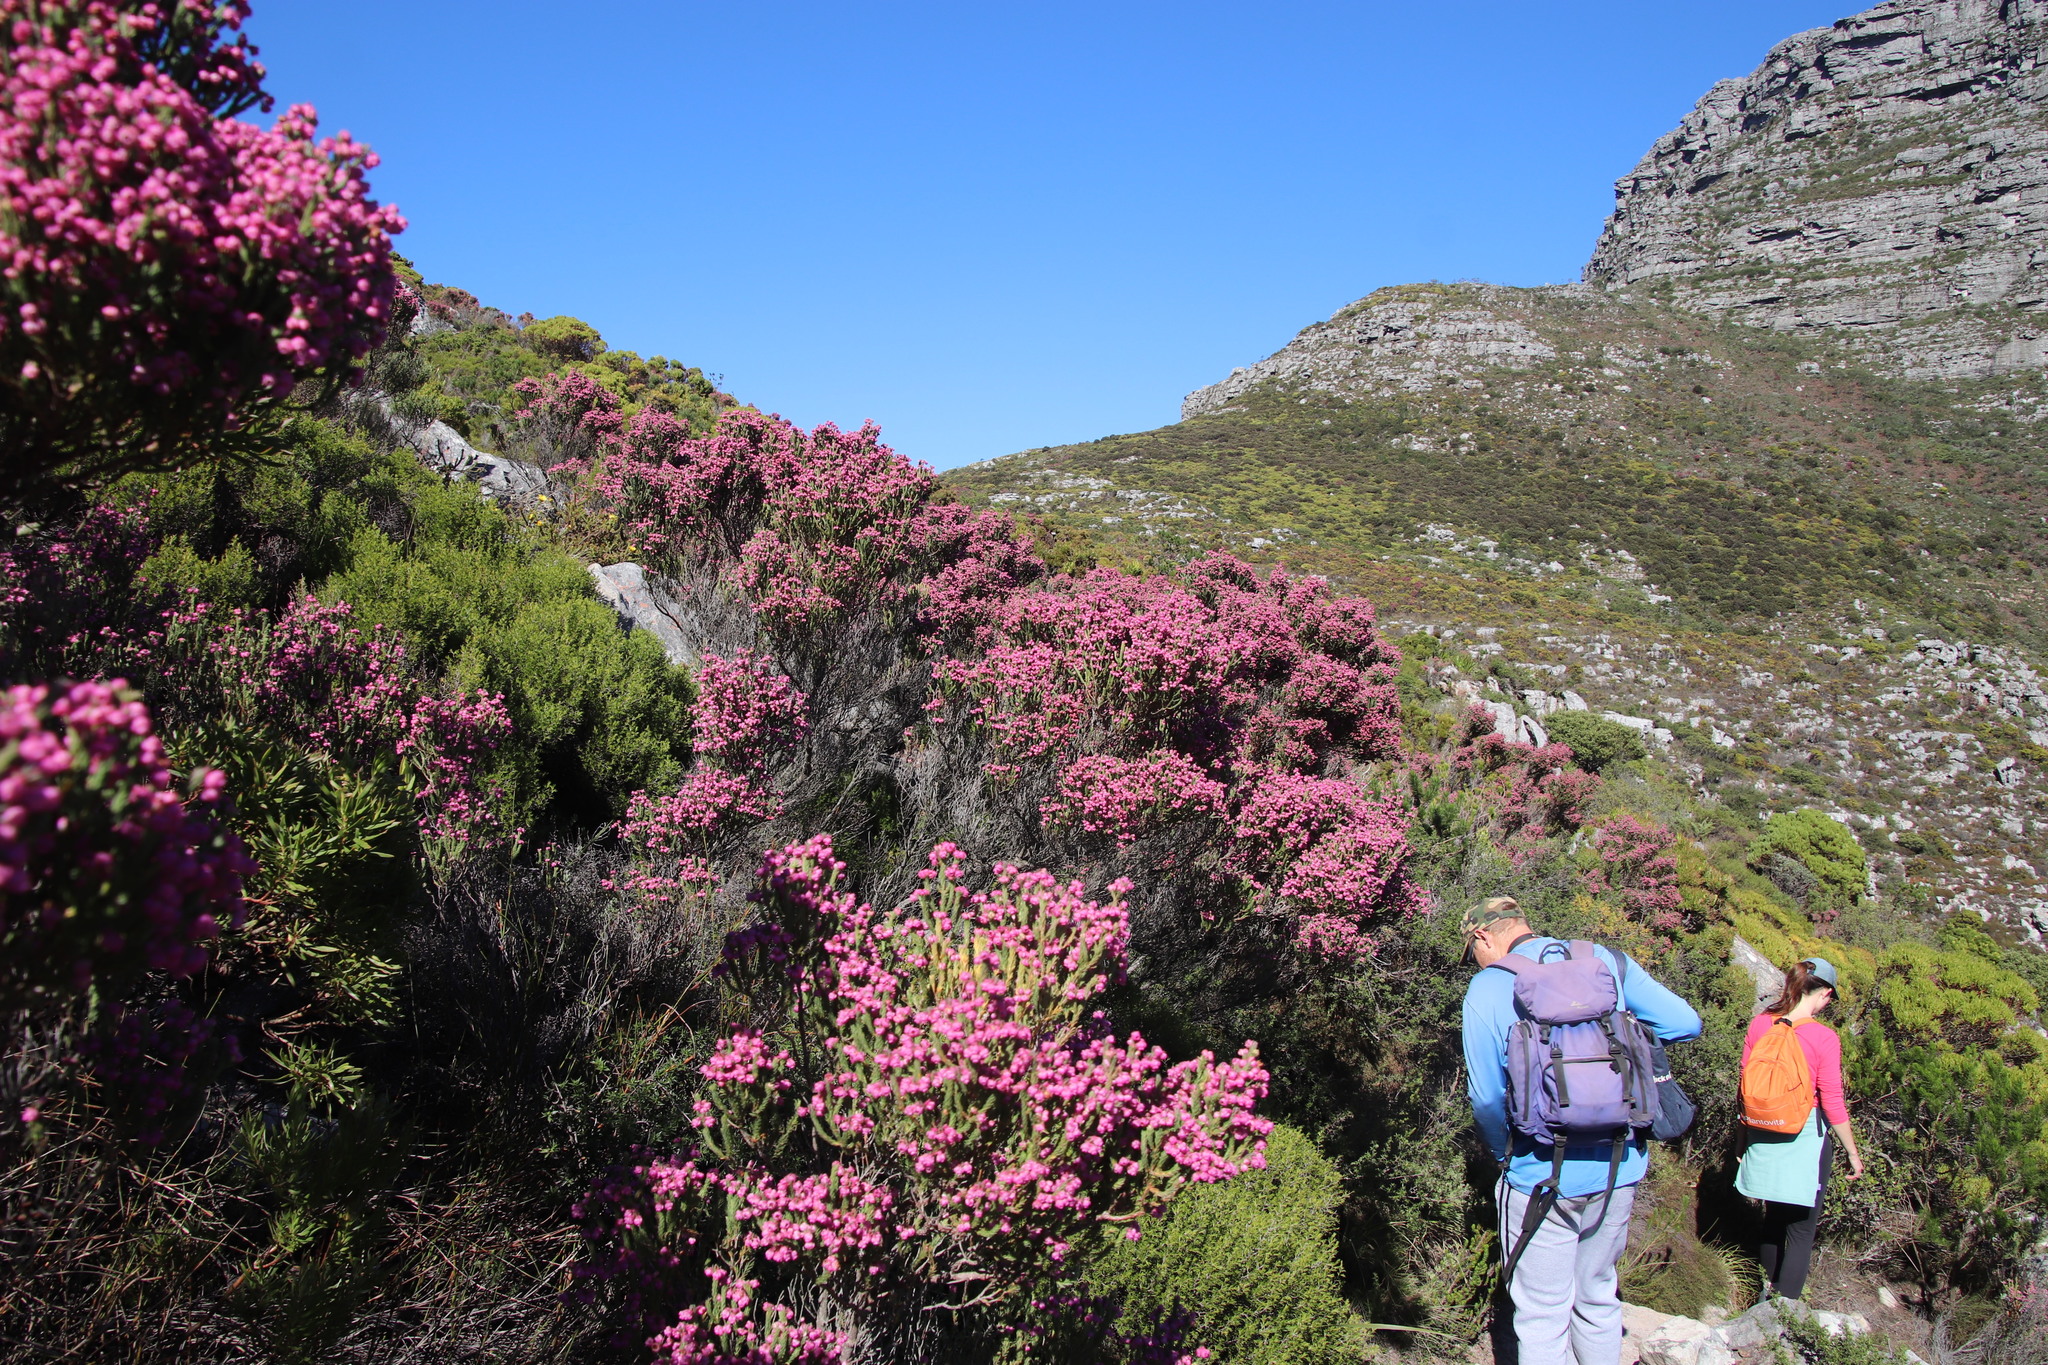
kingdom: Plantae
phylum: Tracheophyta
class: Magnoliopsida
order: Ericales
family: Ericaceae
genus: Erica
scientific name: Erica baccans
